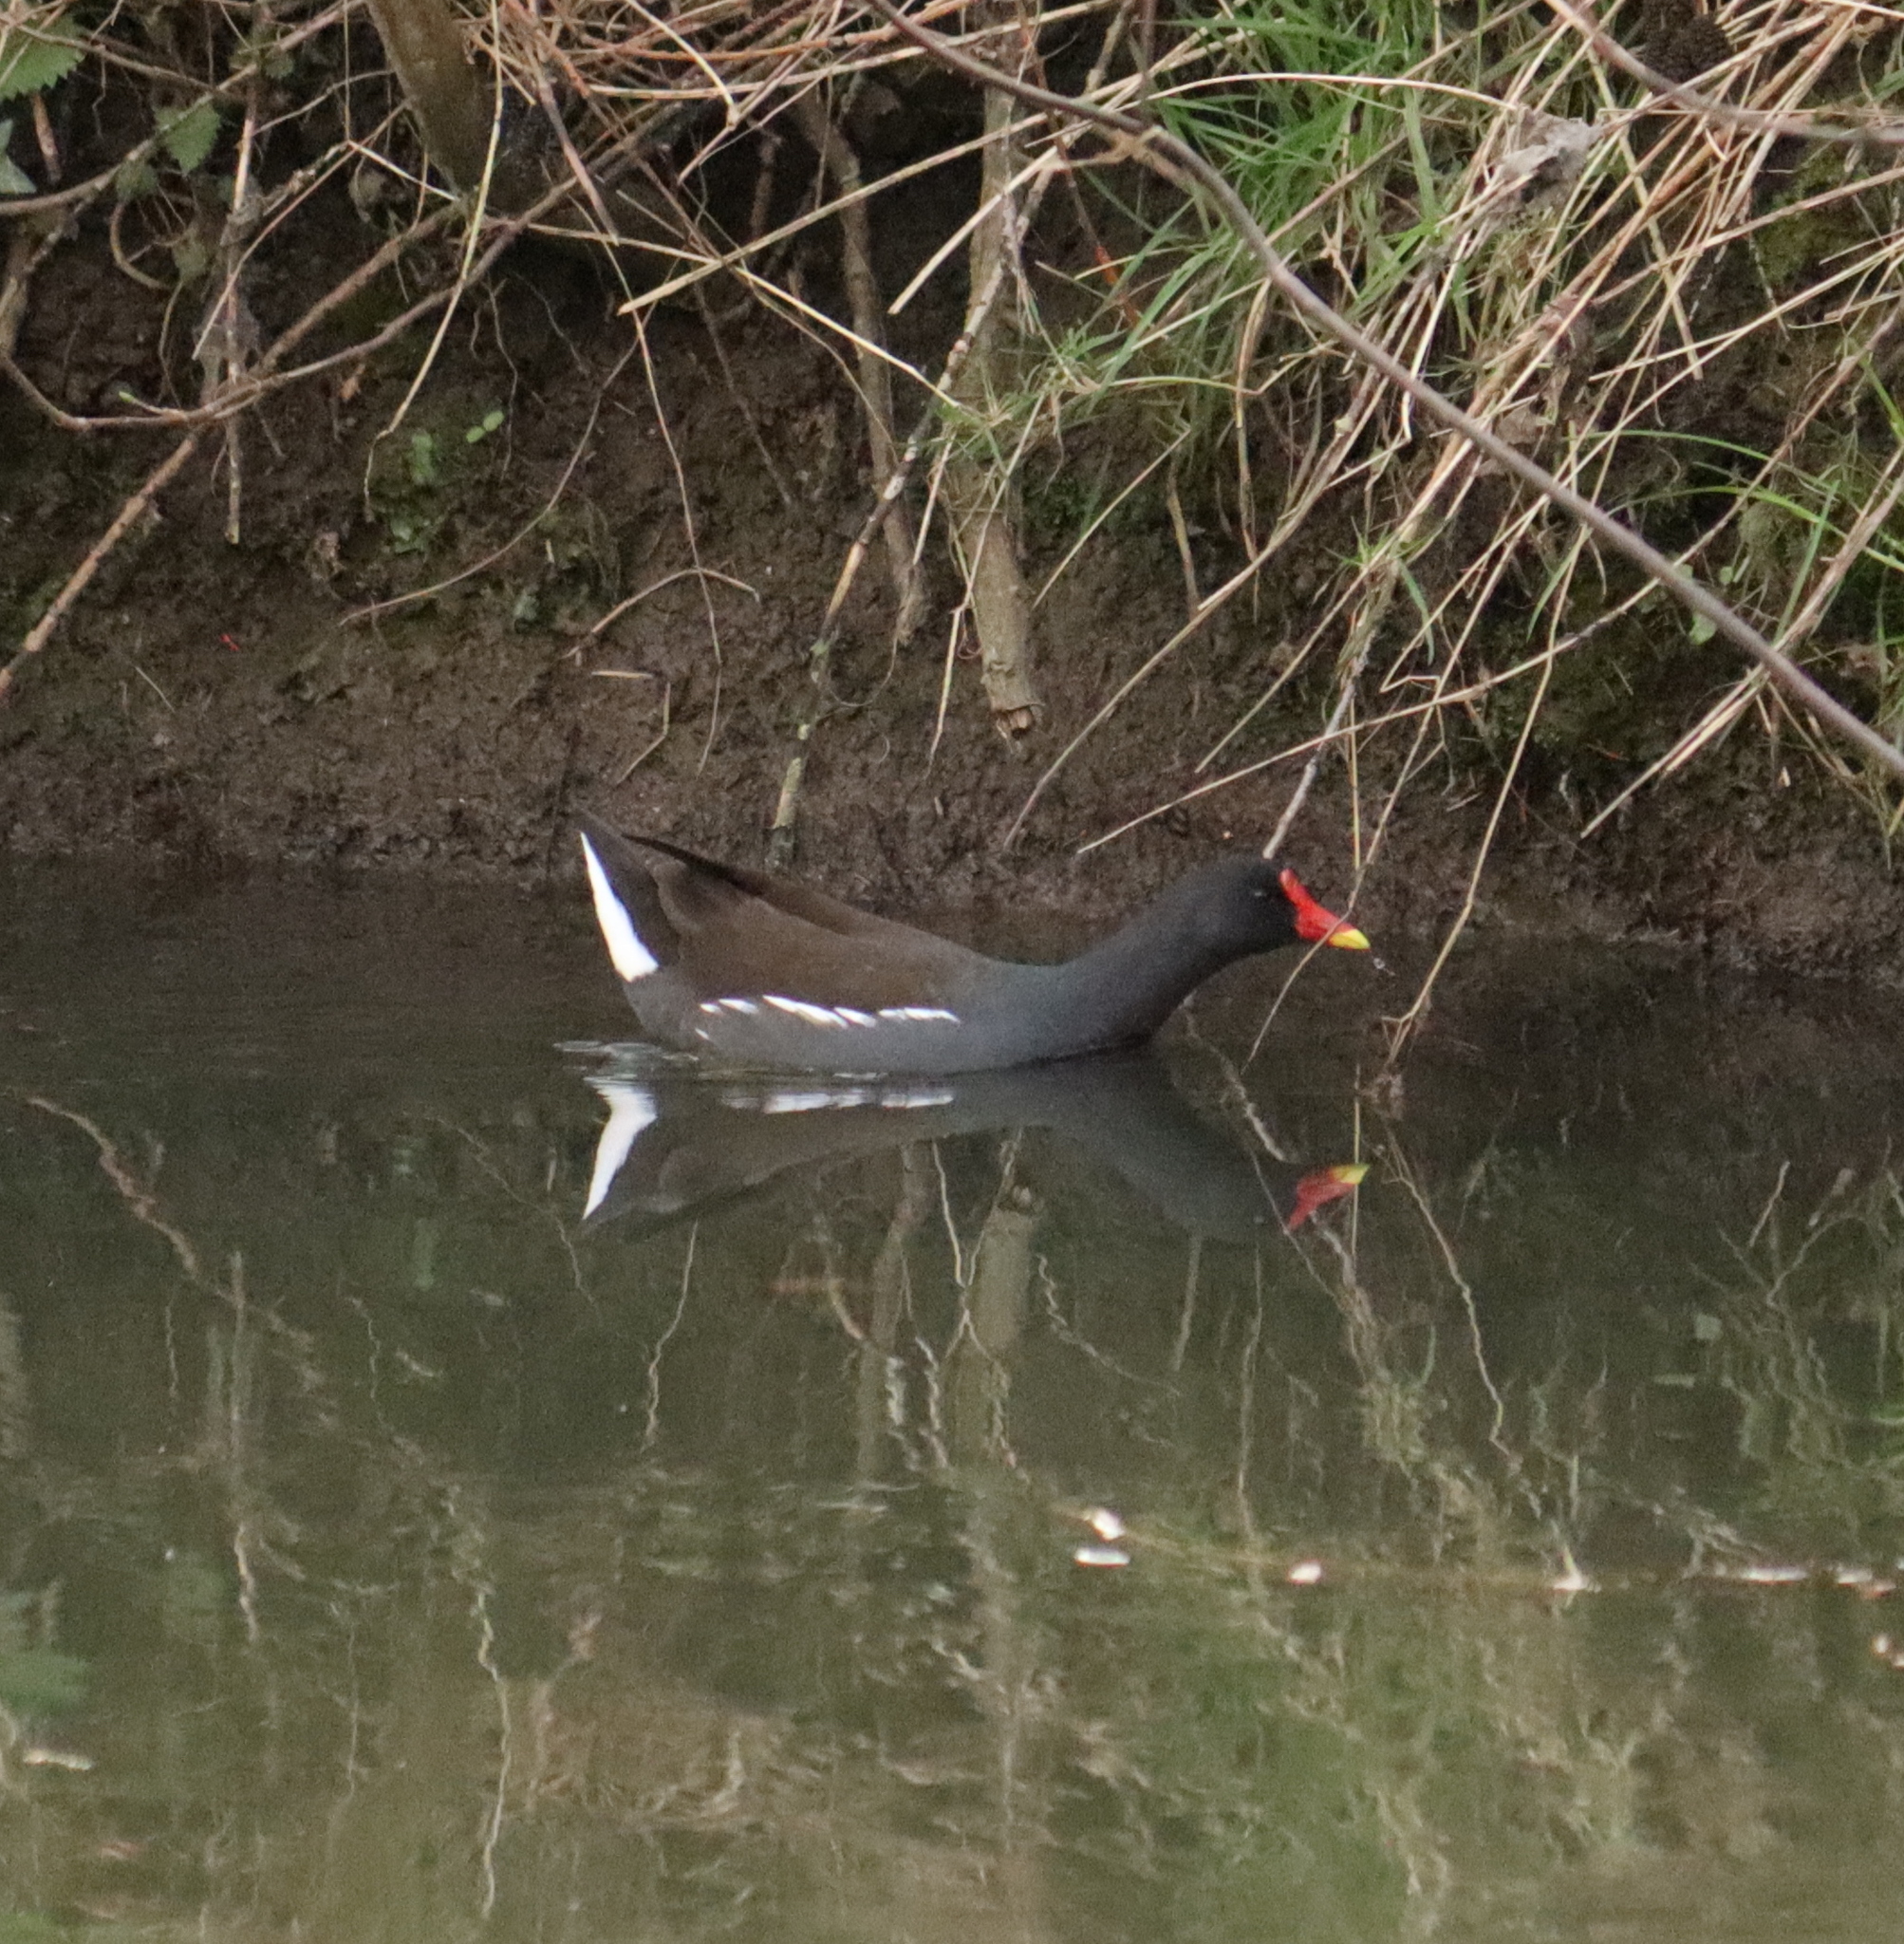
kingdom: Animalia
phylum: Chordata
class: Aves
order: Gruiformes
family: Rallidae
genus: Gallinula
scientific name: Gallinula chloropus
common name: Common moorhen
